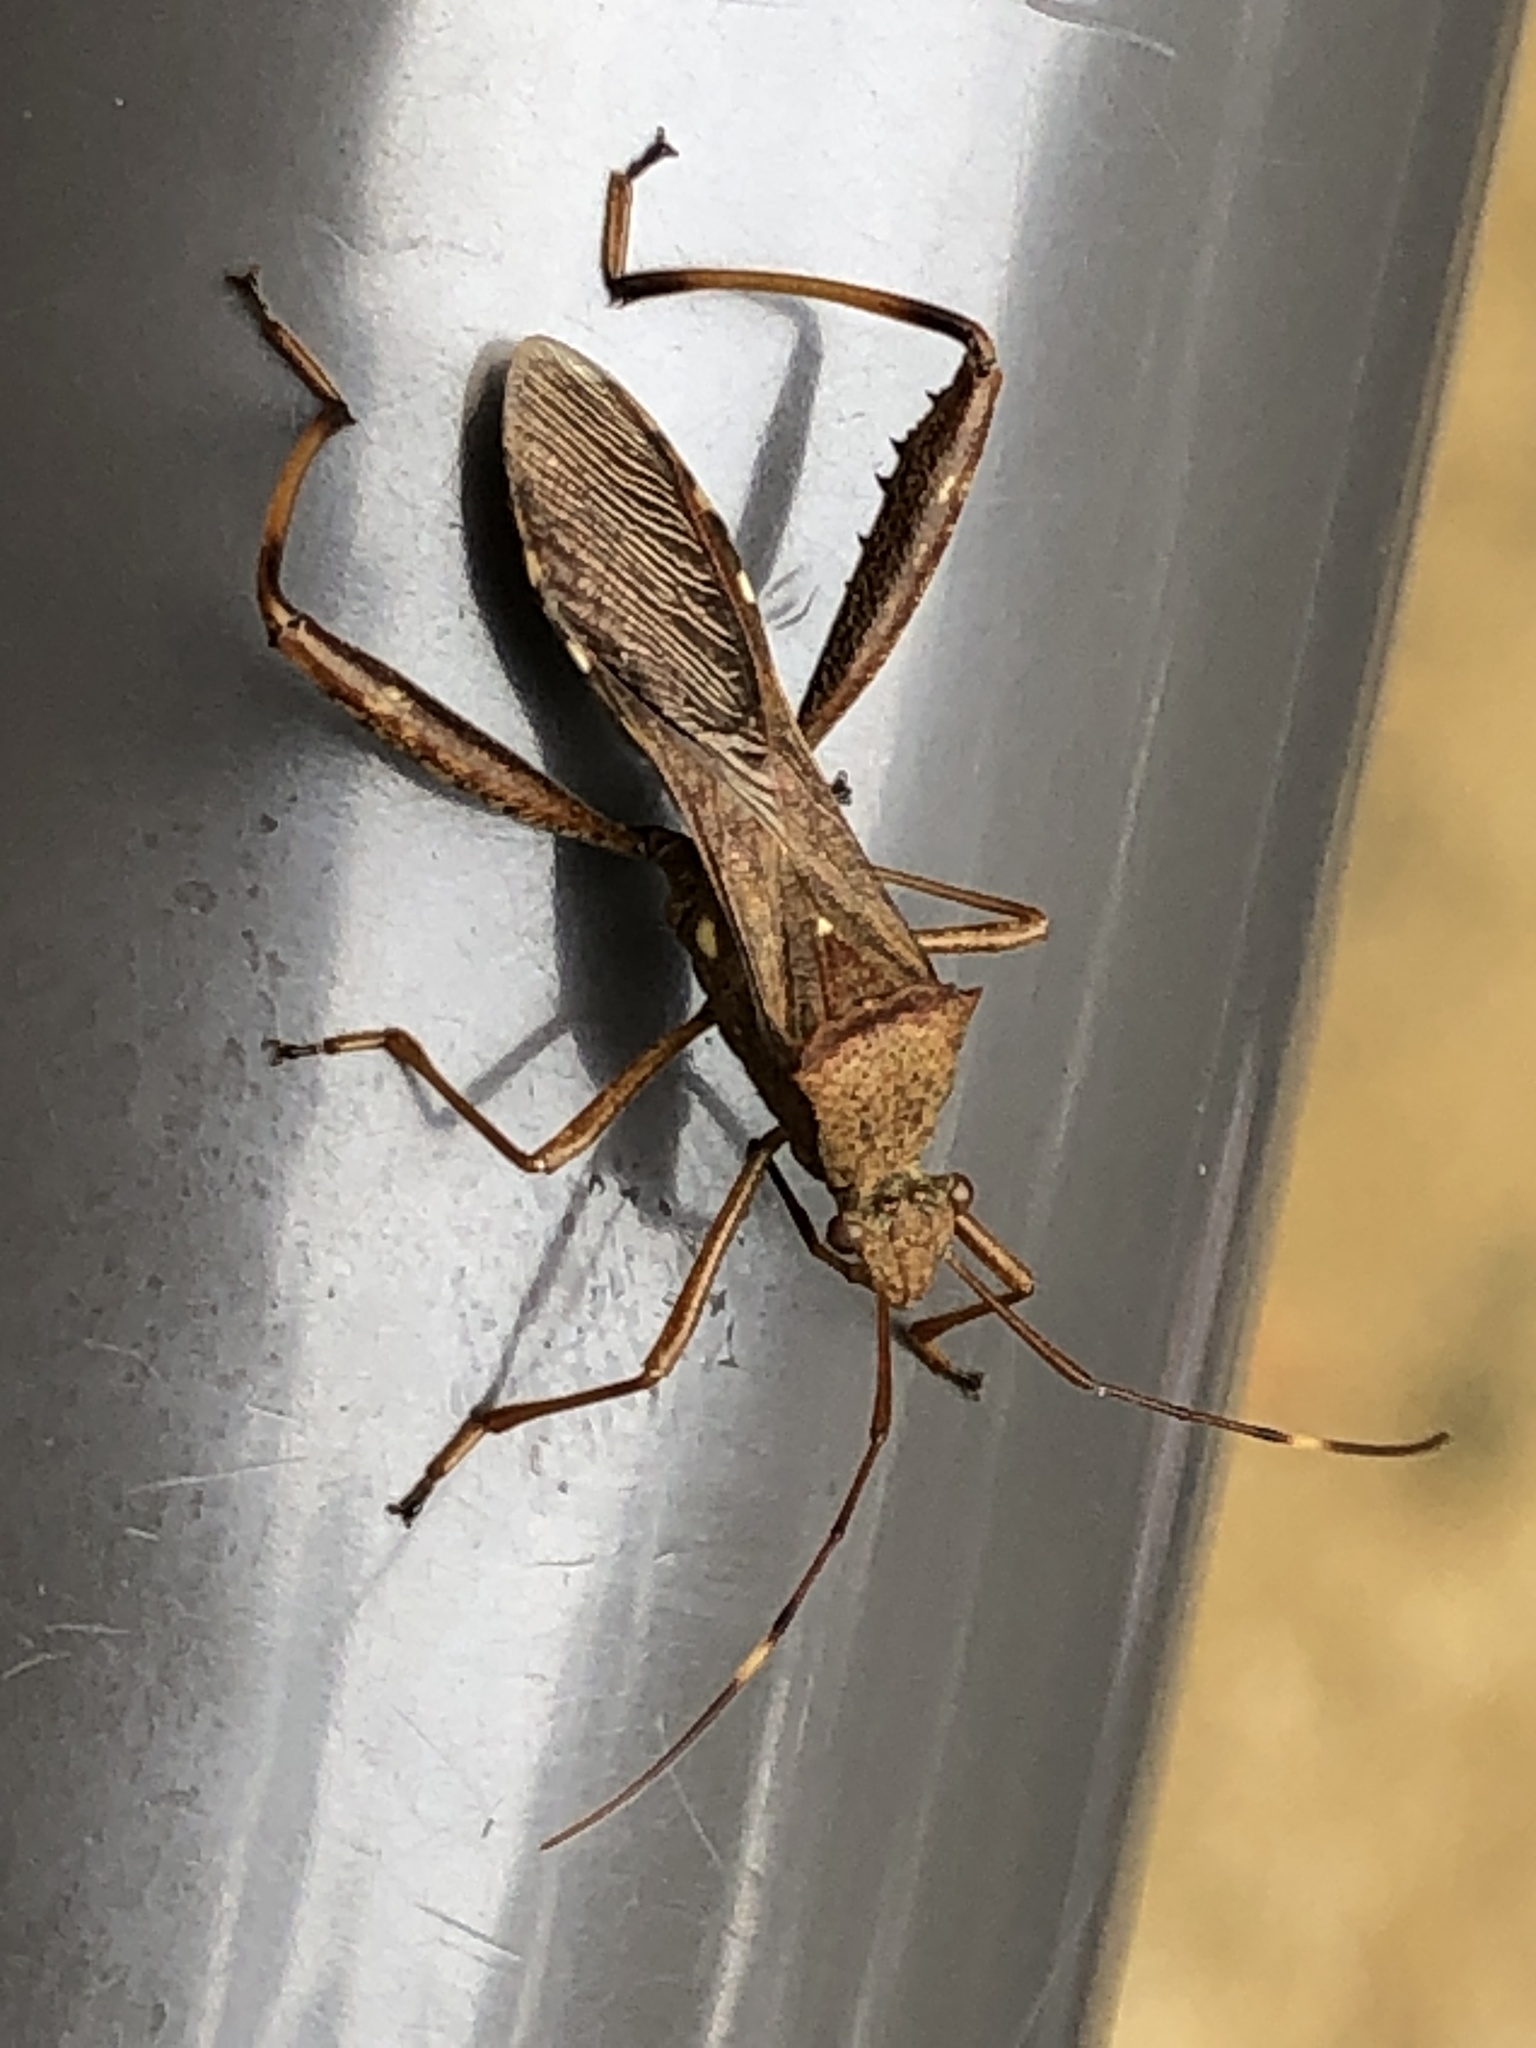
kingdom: Animalia
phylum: Arthropoda
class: Insecta
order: Hemiptera
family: Alydidae
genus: Riptortus
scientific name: Riptortus pedestris
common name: Bean bug
